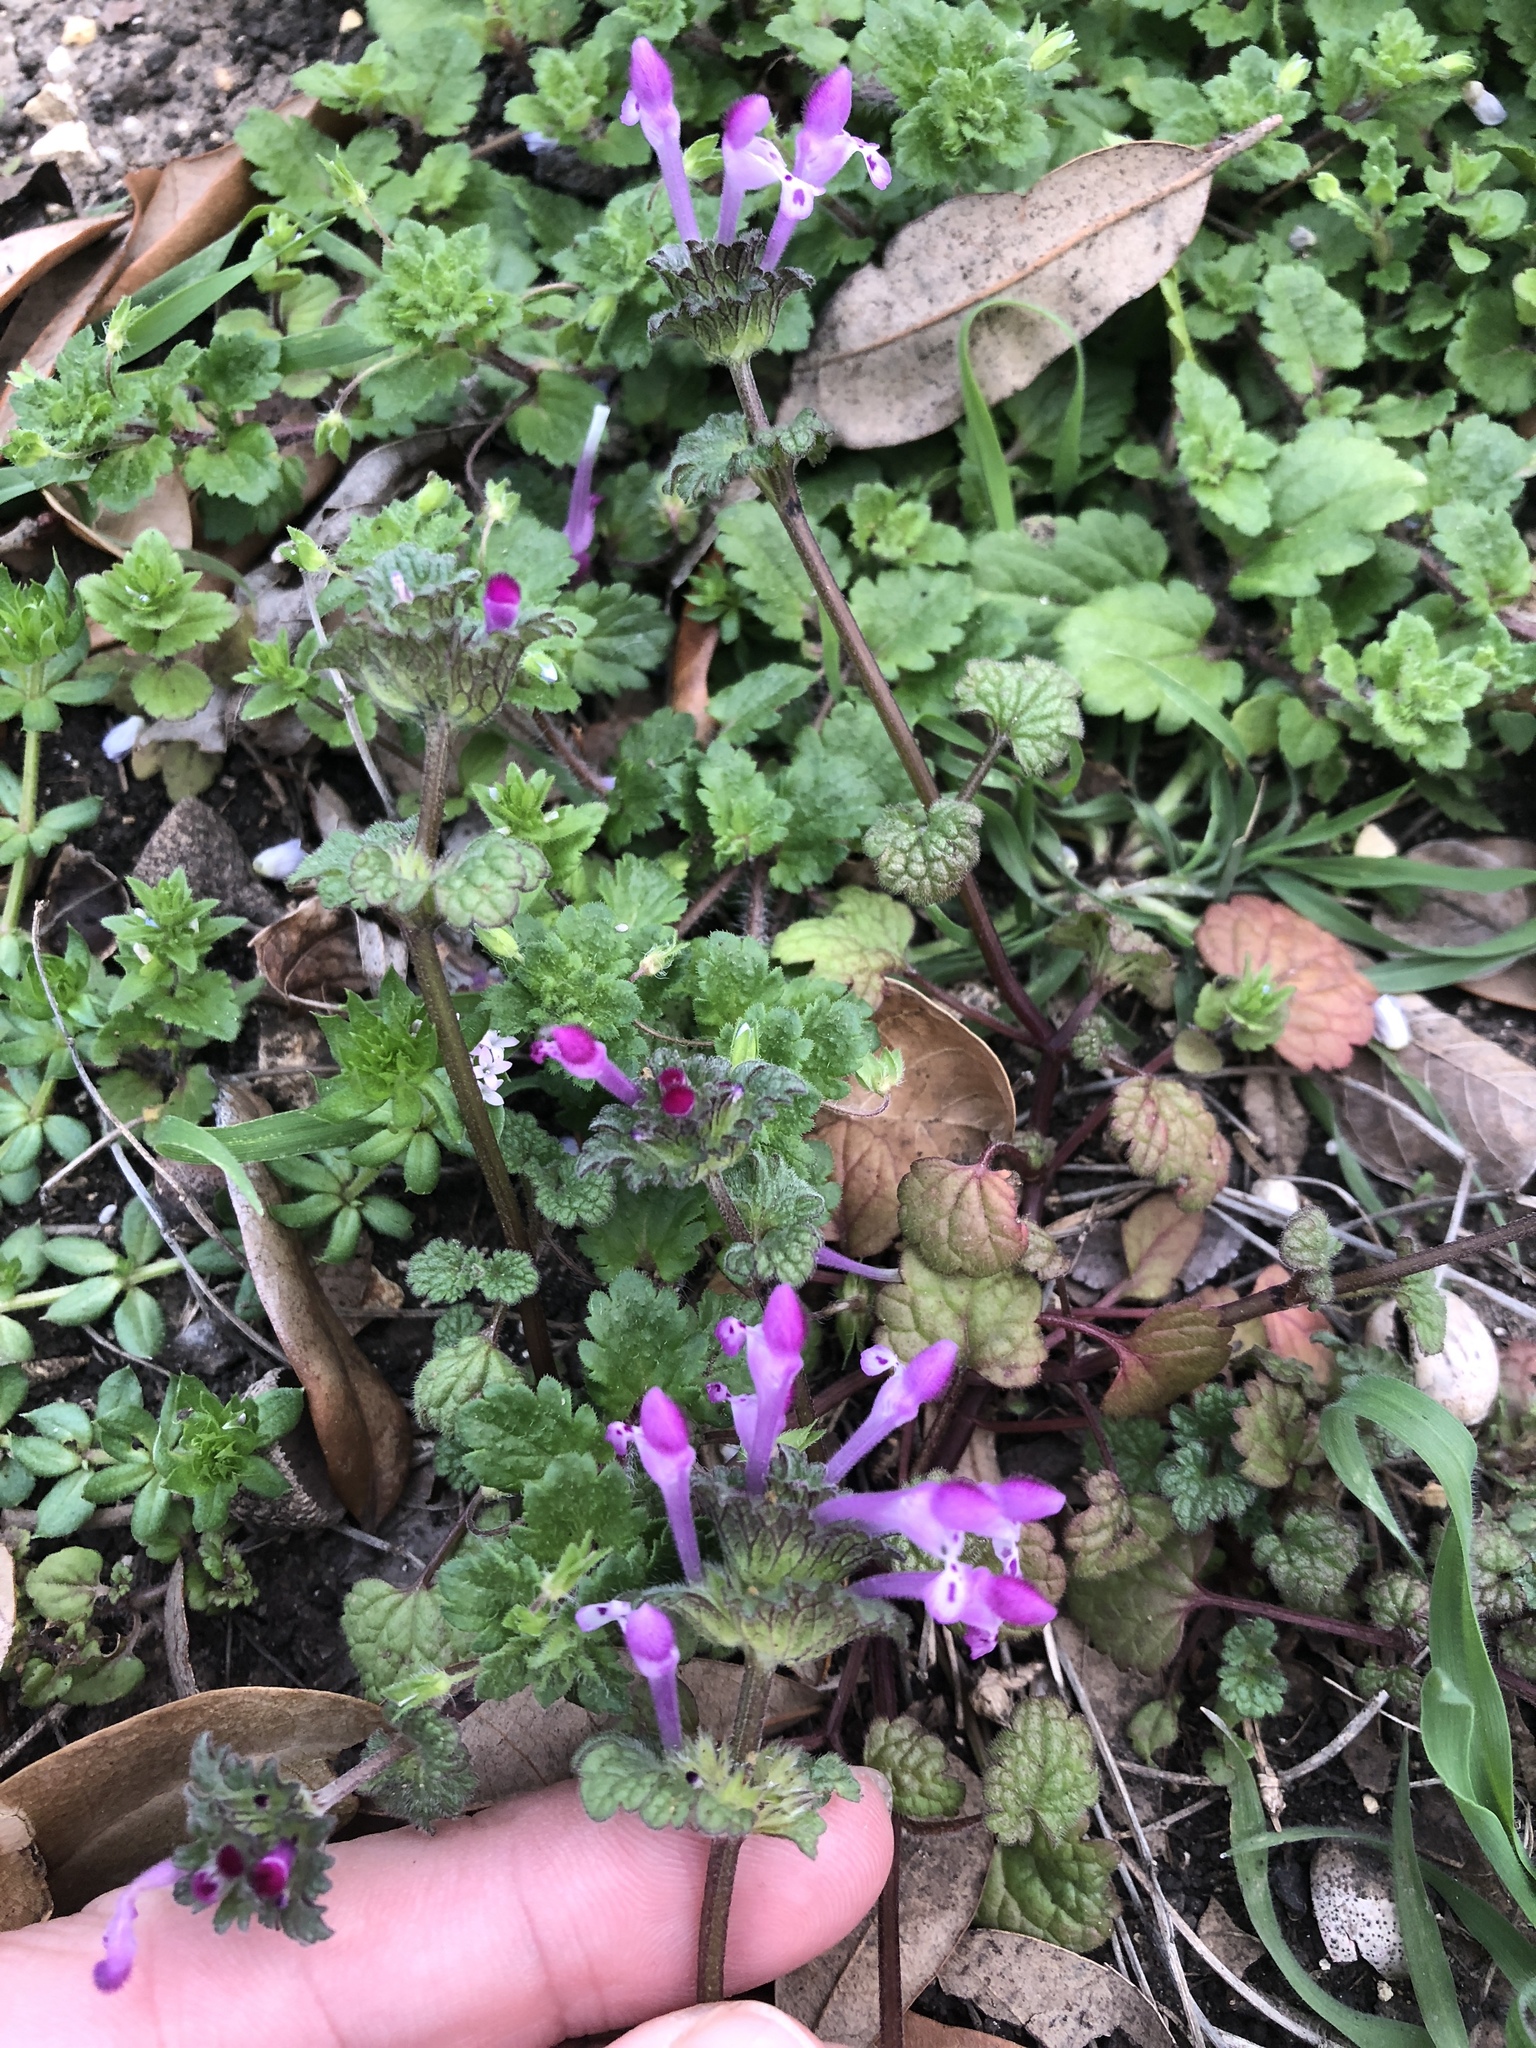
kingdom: Plantae
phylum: Tracheophyta
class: Magnoliopsida
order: Lamiales
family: Lamiaceae
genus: Lamium
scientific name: Lamium amplexicaule
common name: Henbit dead-nettle
